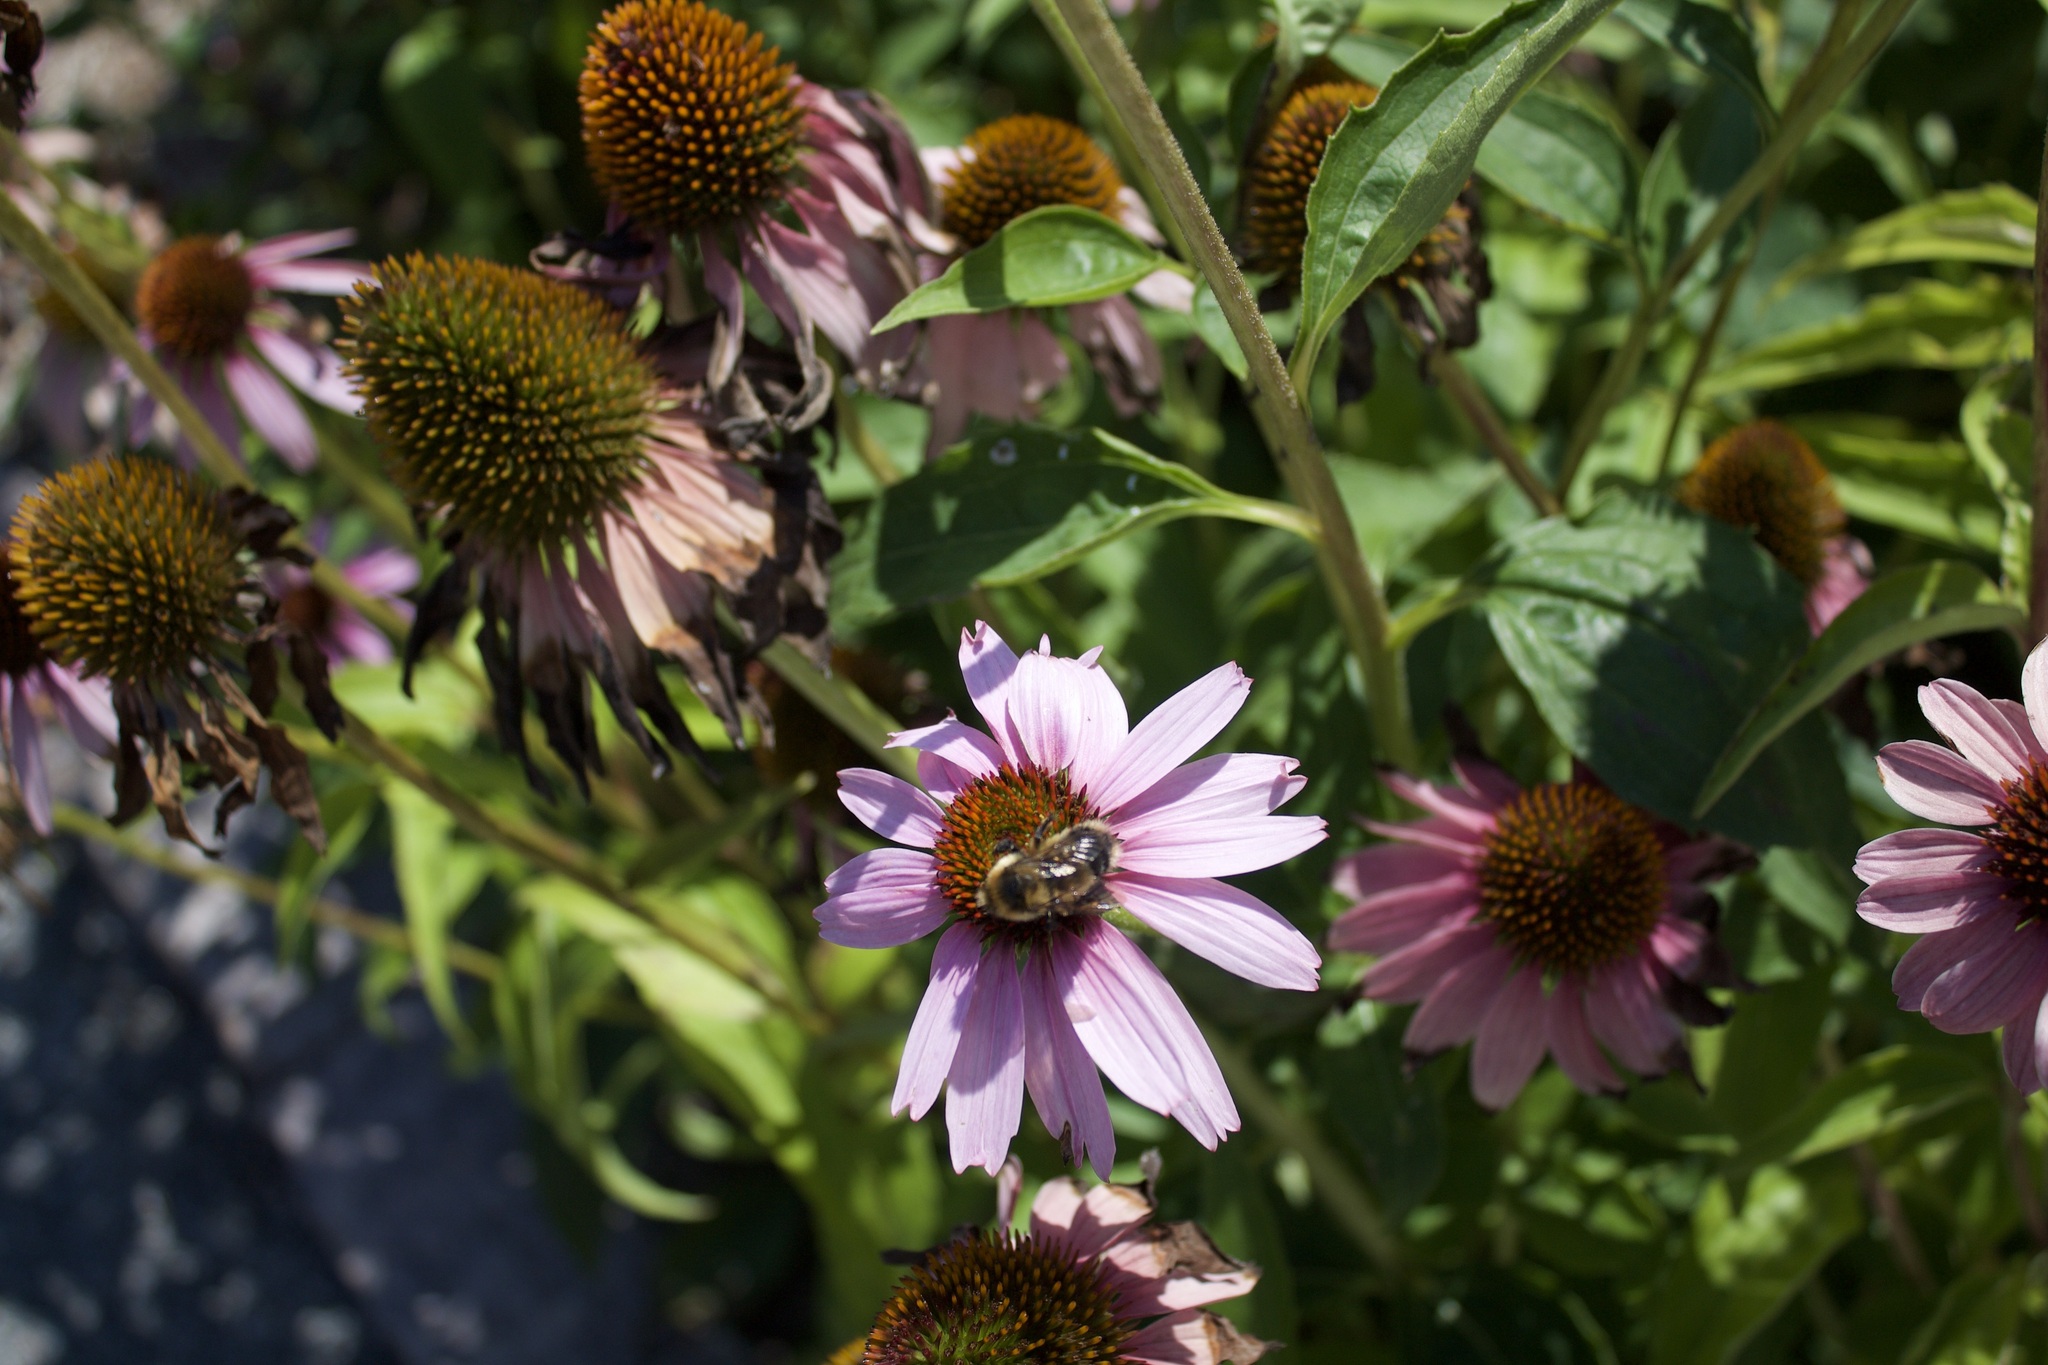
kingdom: Animalia
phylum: Arthropoda
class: Insecta
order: Hymenoptera
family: Apidae
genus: Bombus
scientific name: Bombus rufocinctus
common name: Red-belted bumble bee
